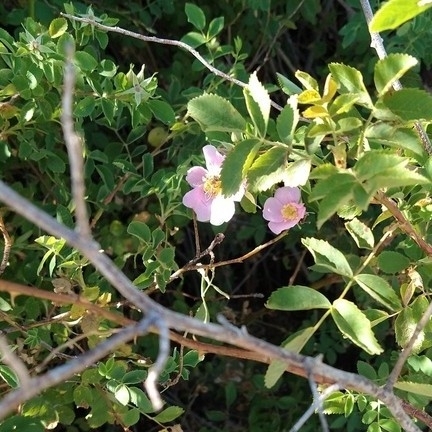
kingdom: Animalia
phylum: Arthropoda
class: Insecta
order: Hymenoptera
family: Apidae
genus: Apis
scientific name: Apis mellifera
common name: Honey bee
